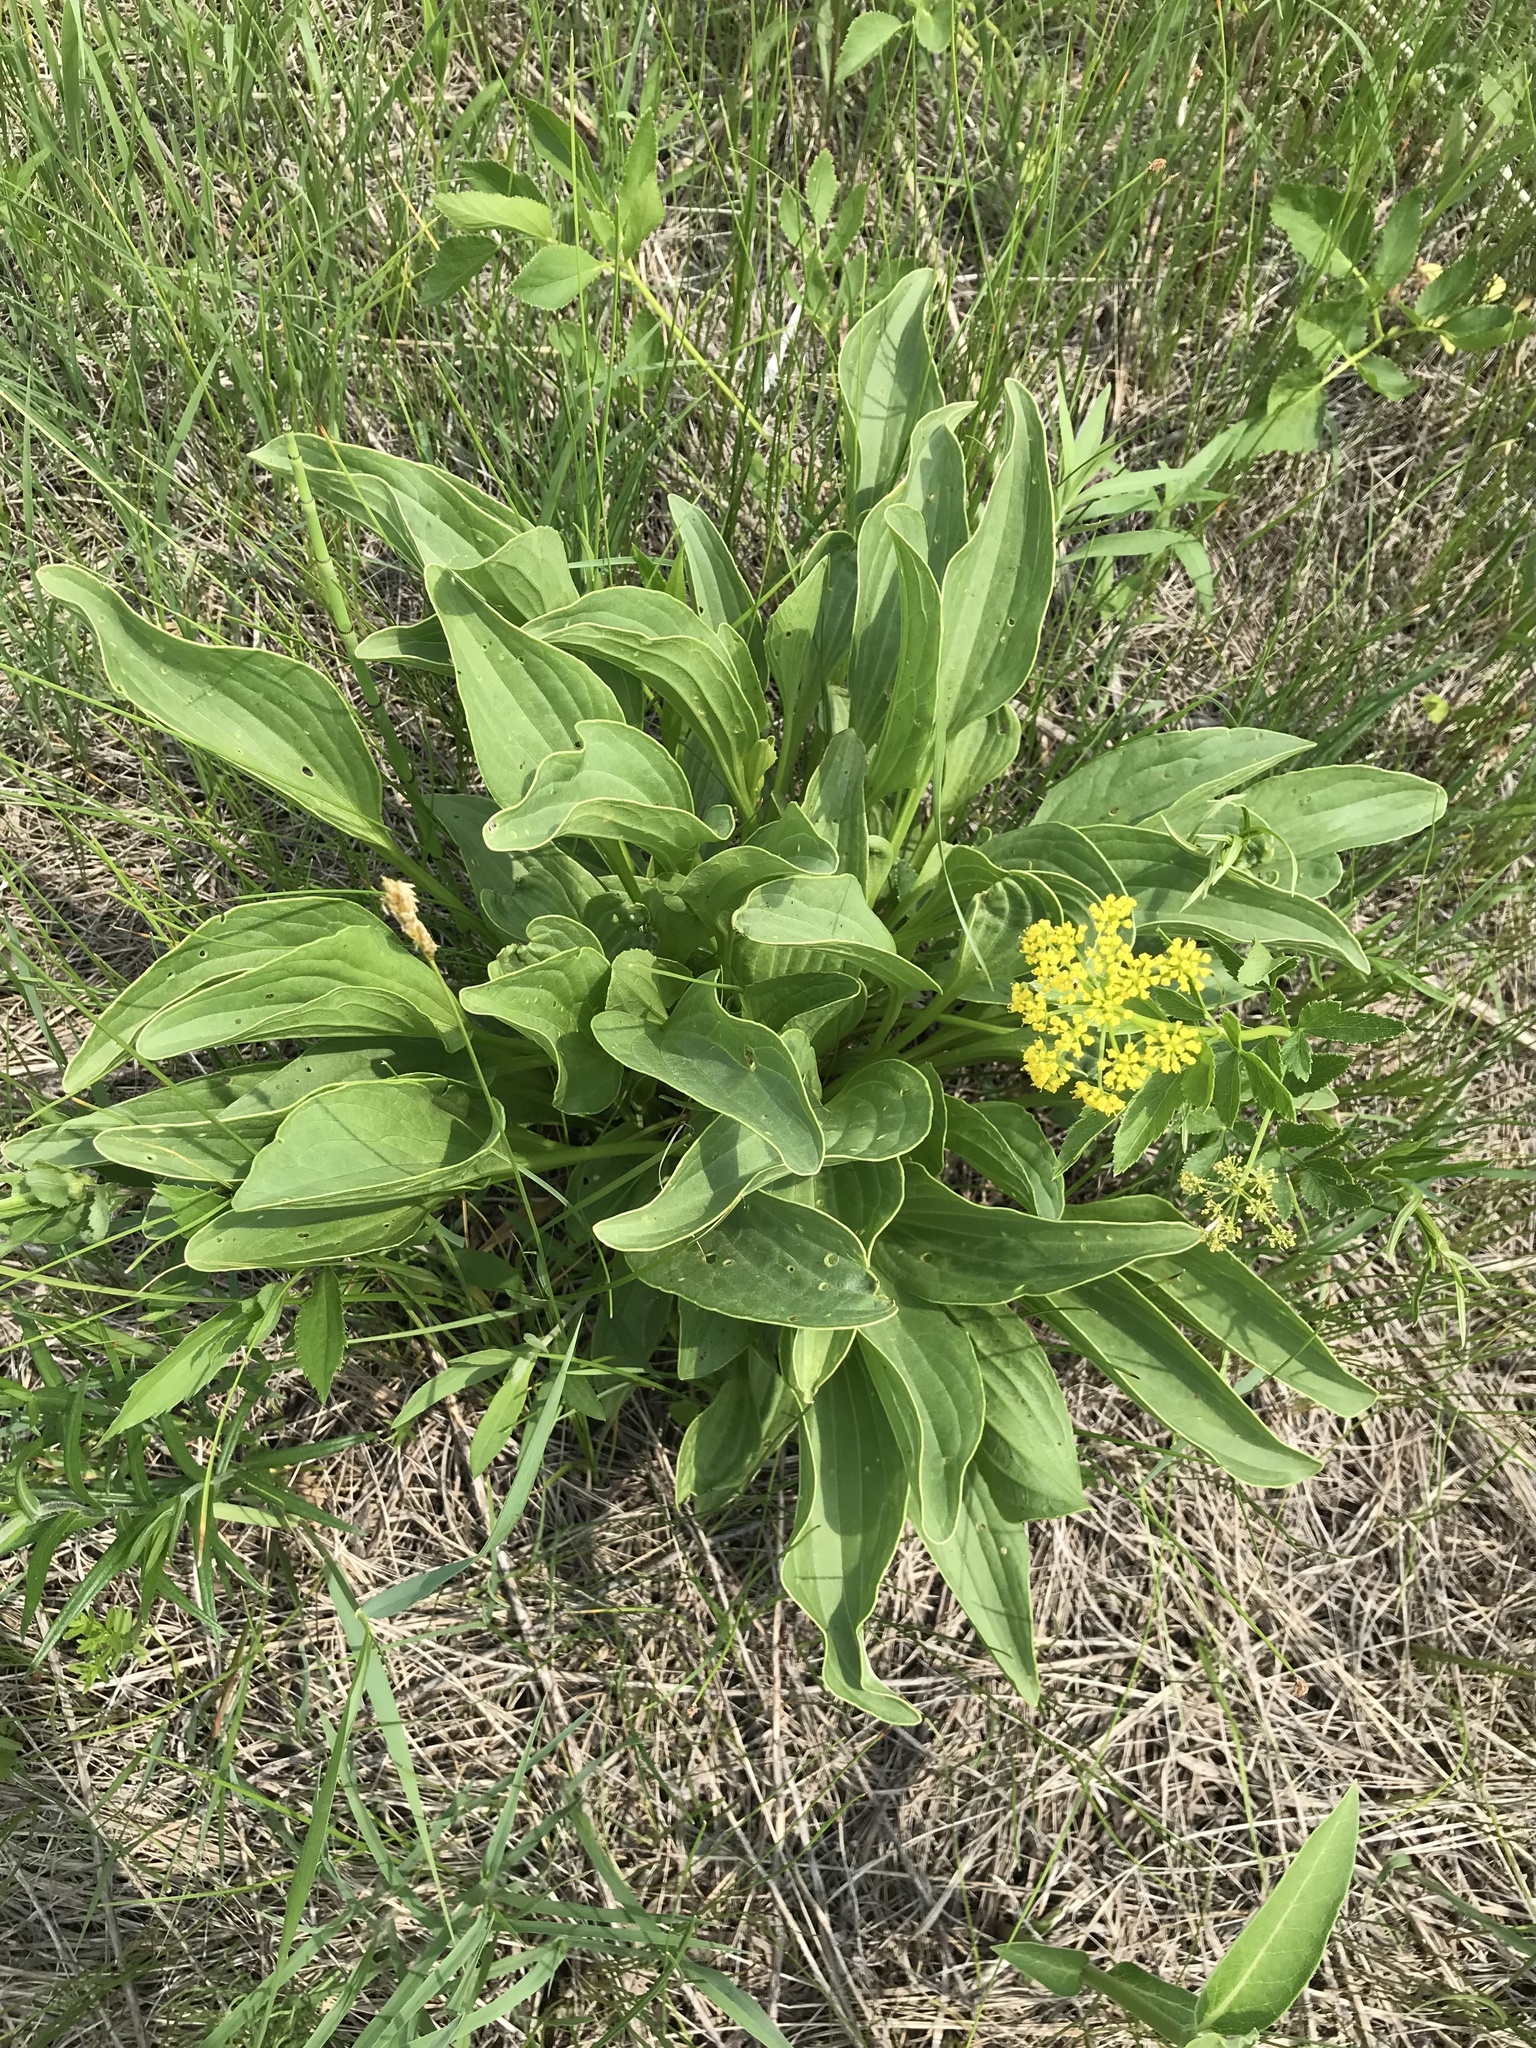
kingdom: Plantae
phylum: Tracheophyta
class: Magnoliopsida
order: Asterales
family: Asteraceae
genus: Arnoglossum
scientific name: Arnoglossum plantagineum
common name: Groove-stemmed indian-plantain
